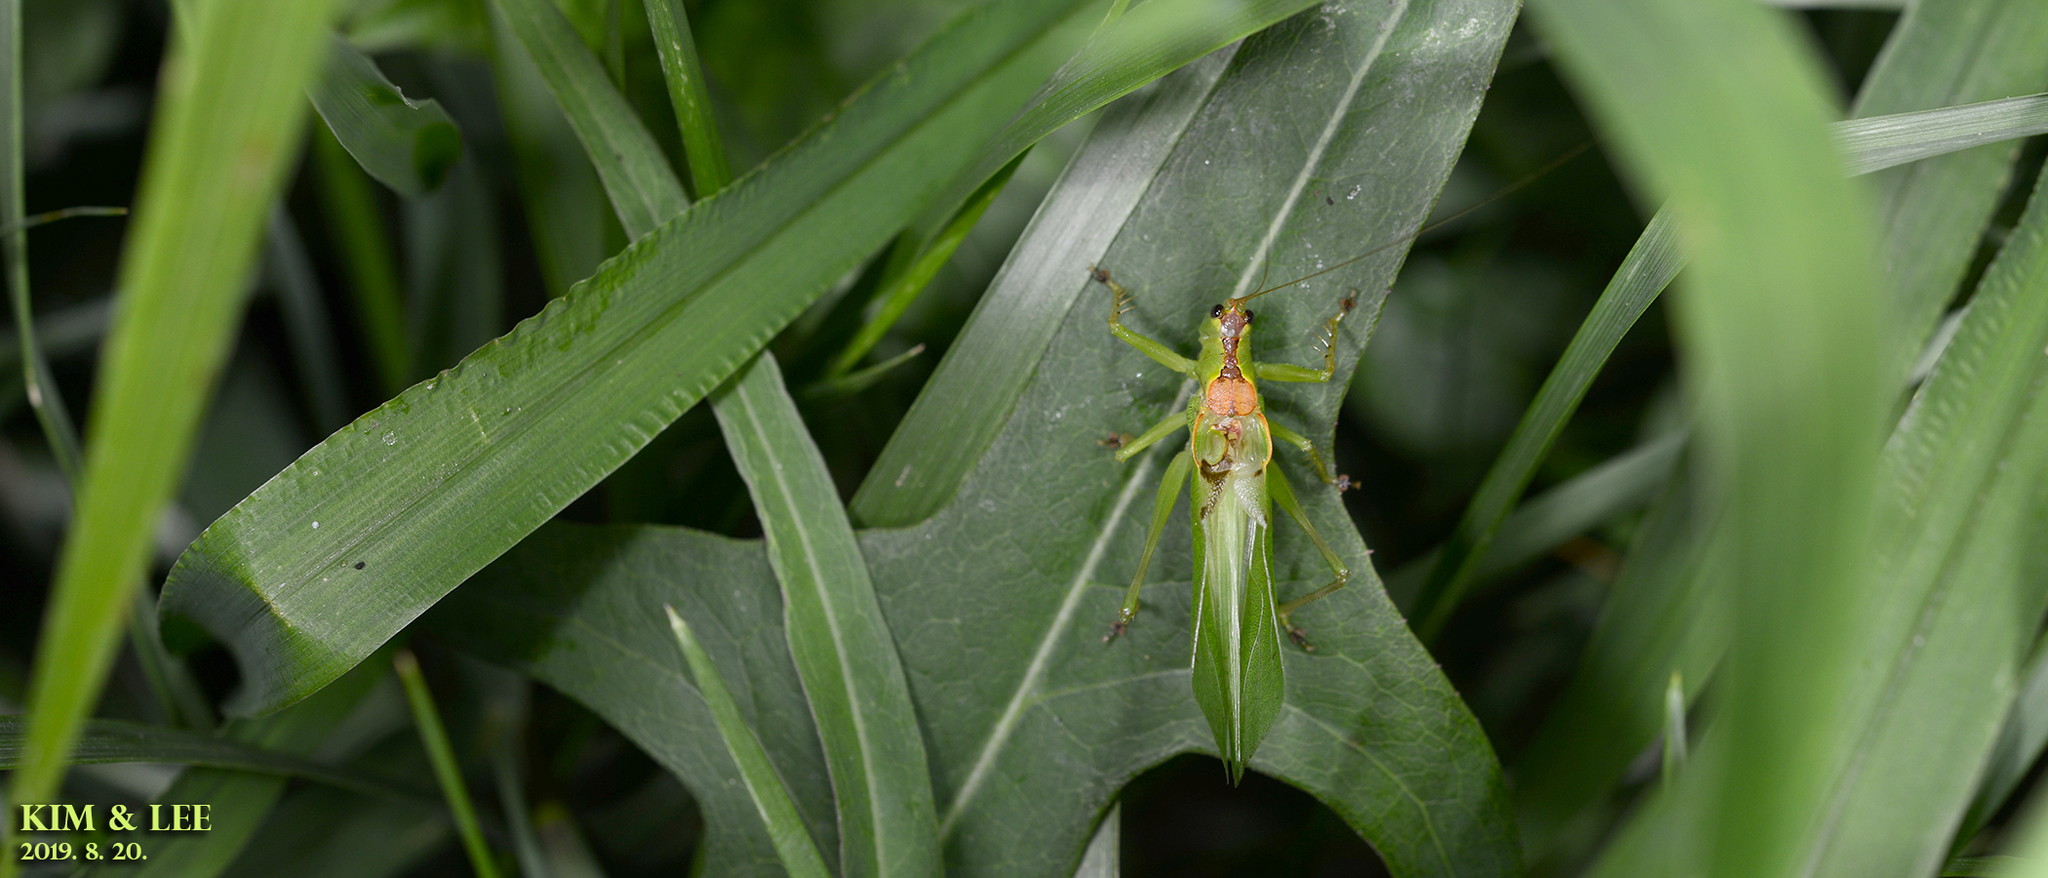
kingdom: Animalia
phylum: Arthropoda
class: Insecta
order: Orthoptera
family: Tettigoniidae
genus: Hexacentrus
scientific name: Hexacentrus japonicus
